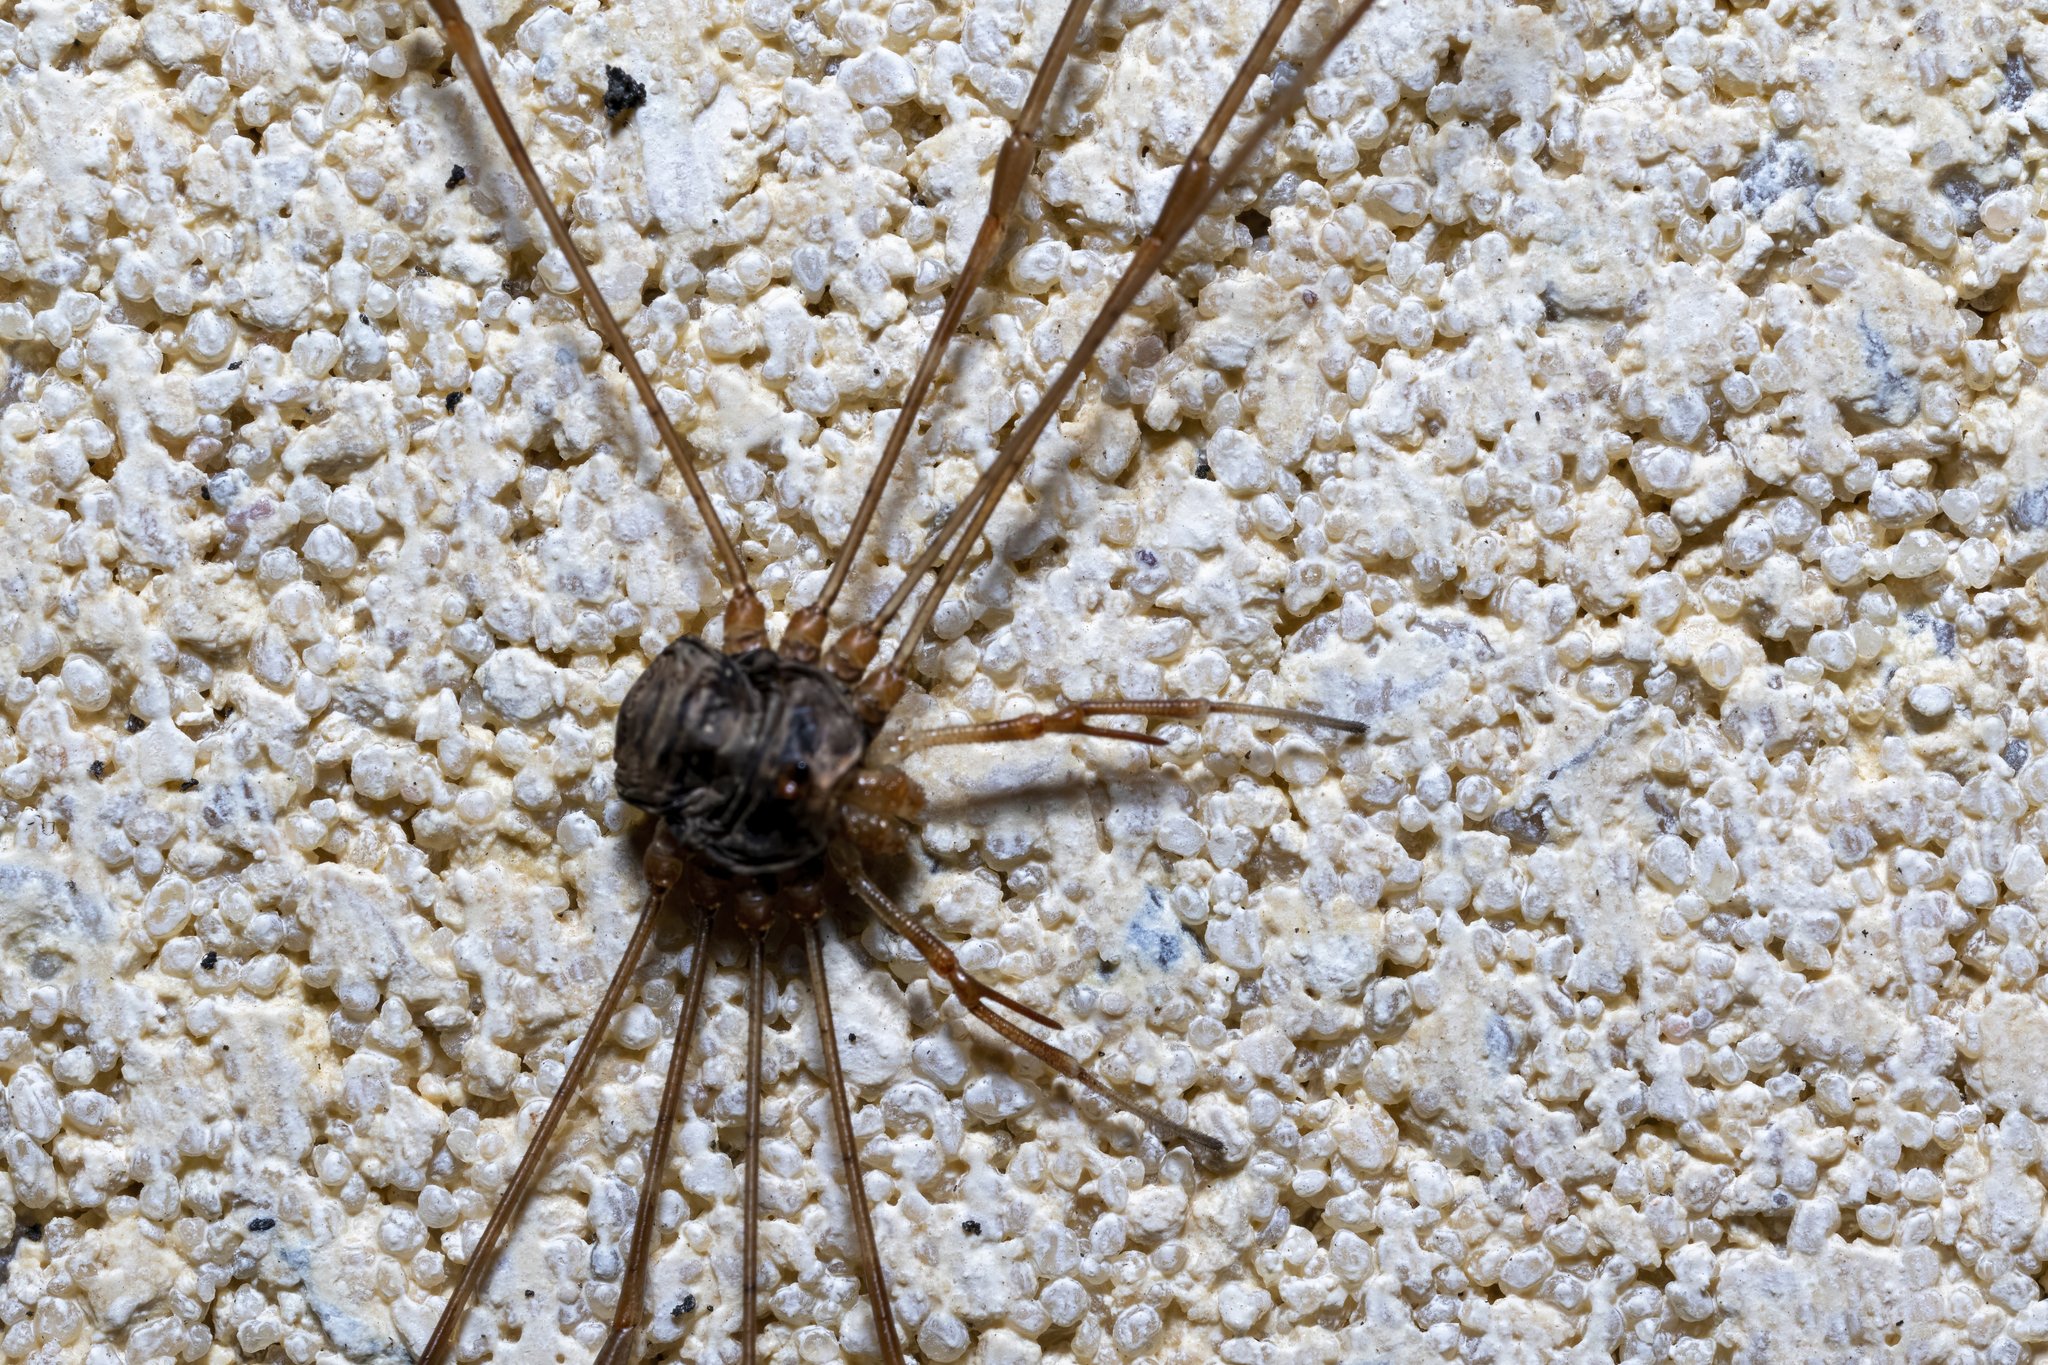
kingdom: Animalia
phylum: Arthropoda
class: Arachnida
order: Opiliones
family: Phalangiidae
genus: Dicranopalpus
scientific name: Dicranopalpus ramosus
